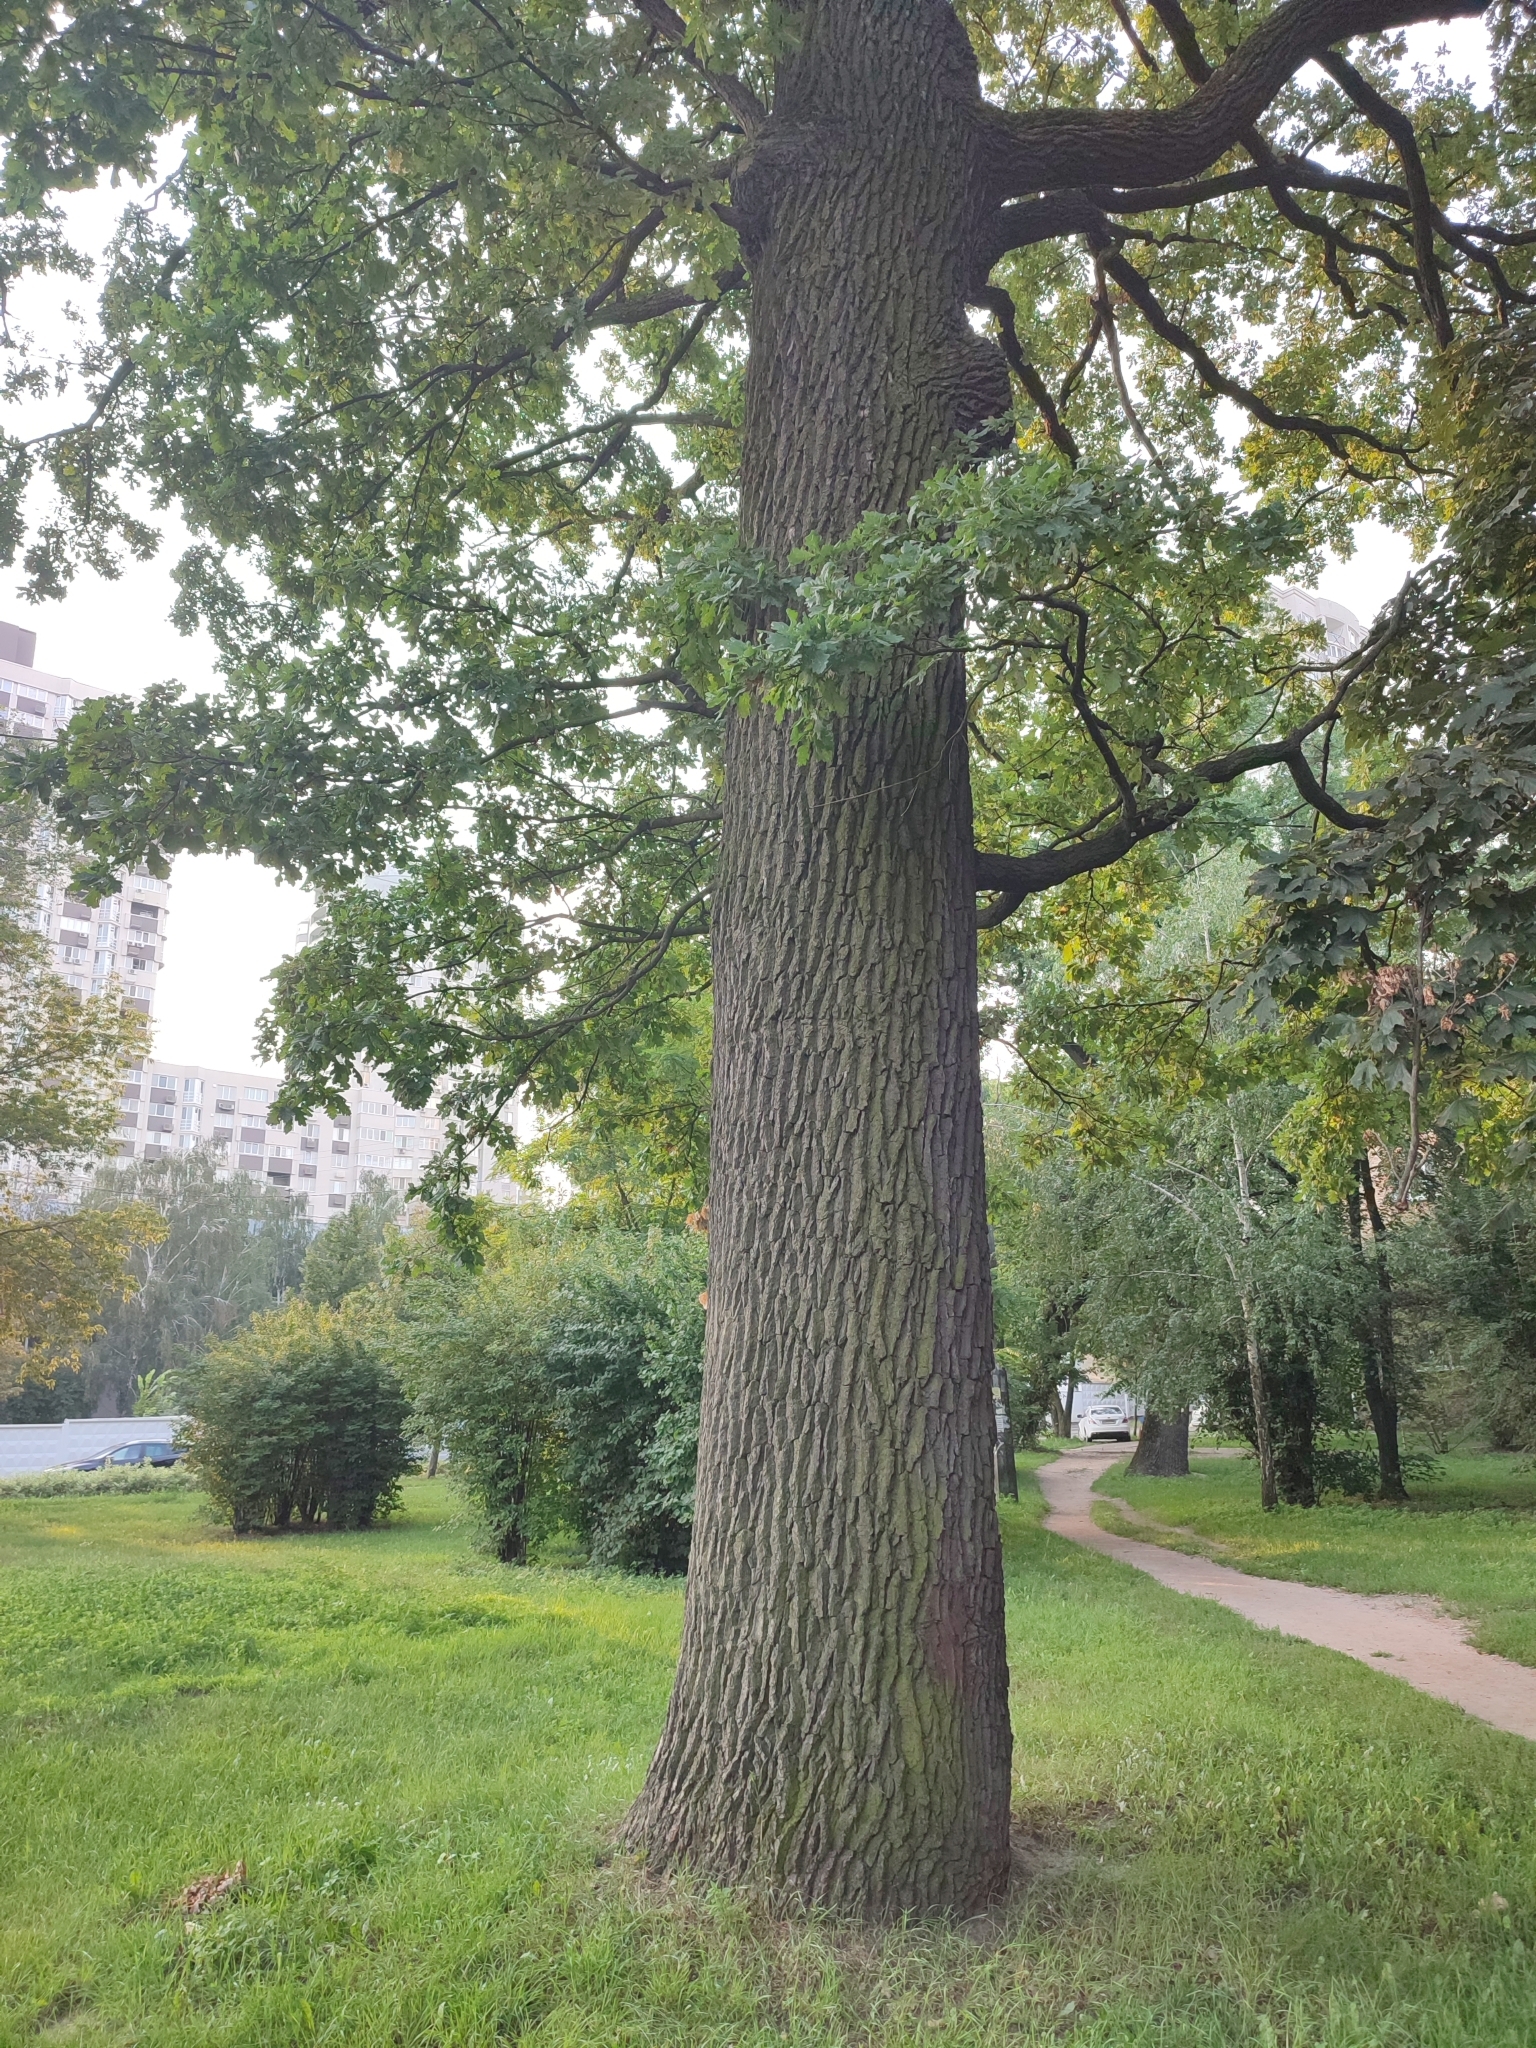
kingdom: Plantae
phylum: Tracheophyta
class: Magnoliopsida
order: Fagales
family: Fagaceae
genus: Quercus
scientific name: Quercus robur
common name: Pedunculate oak
